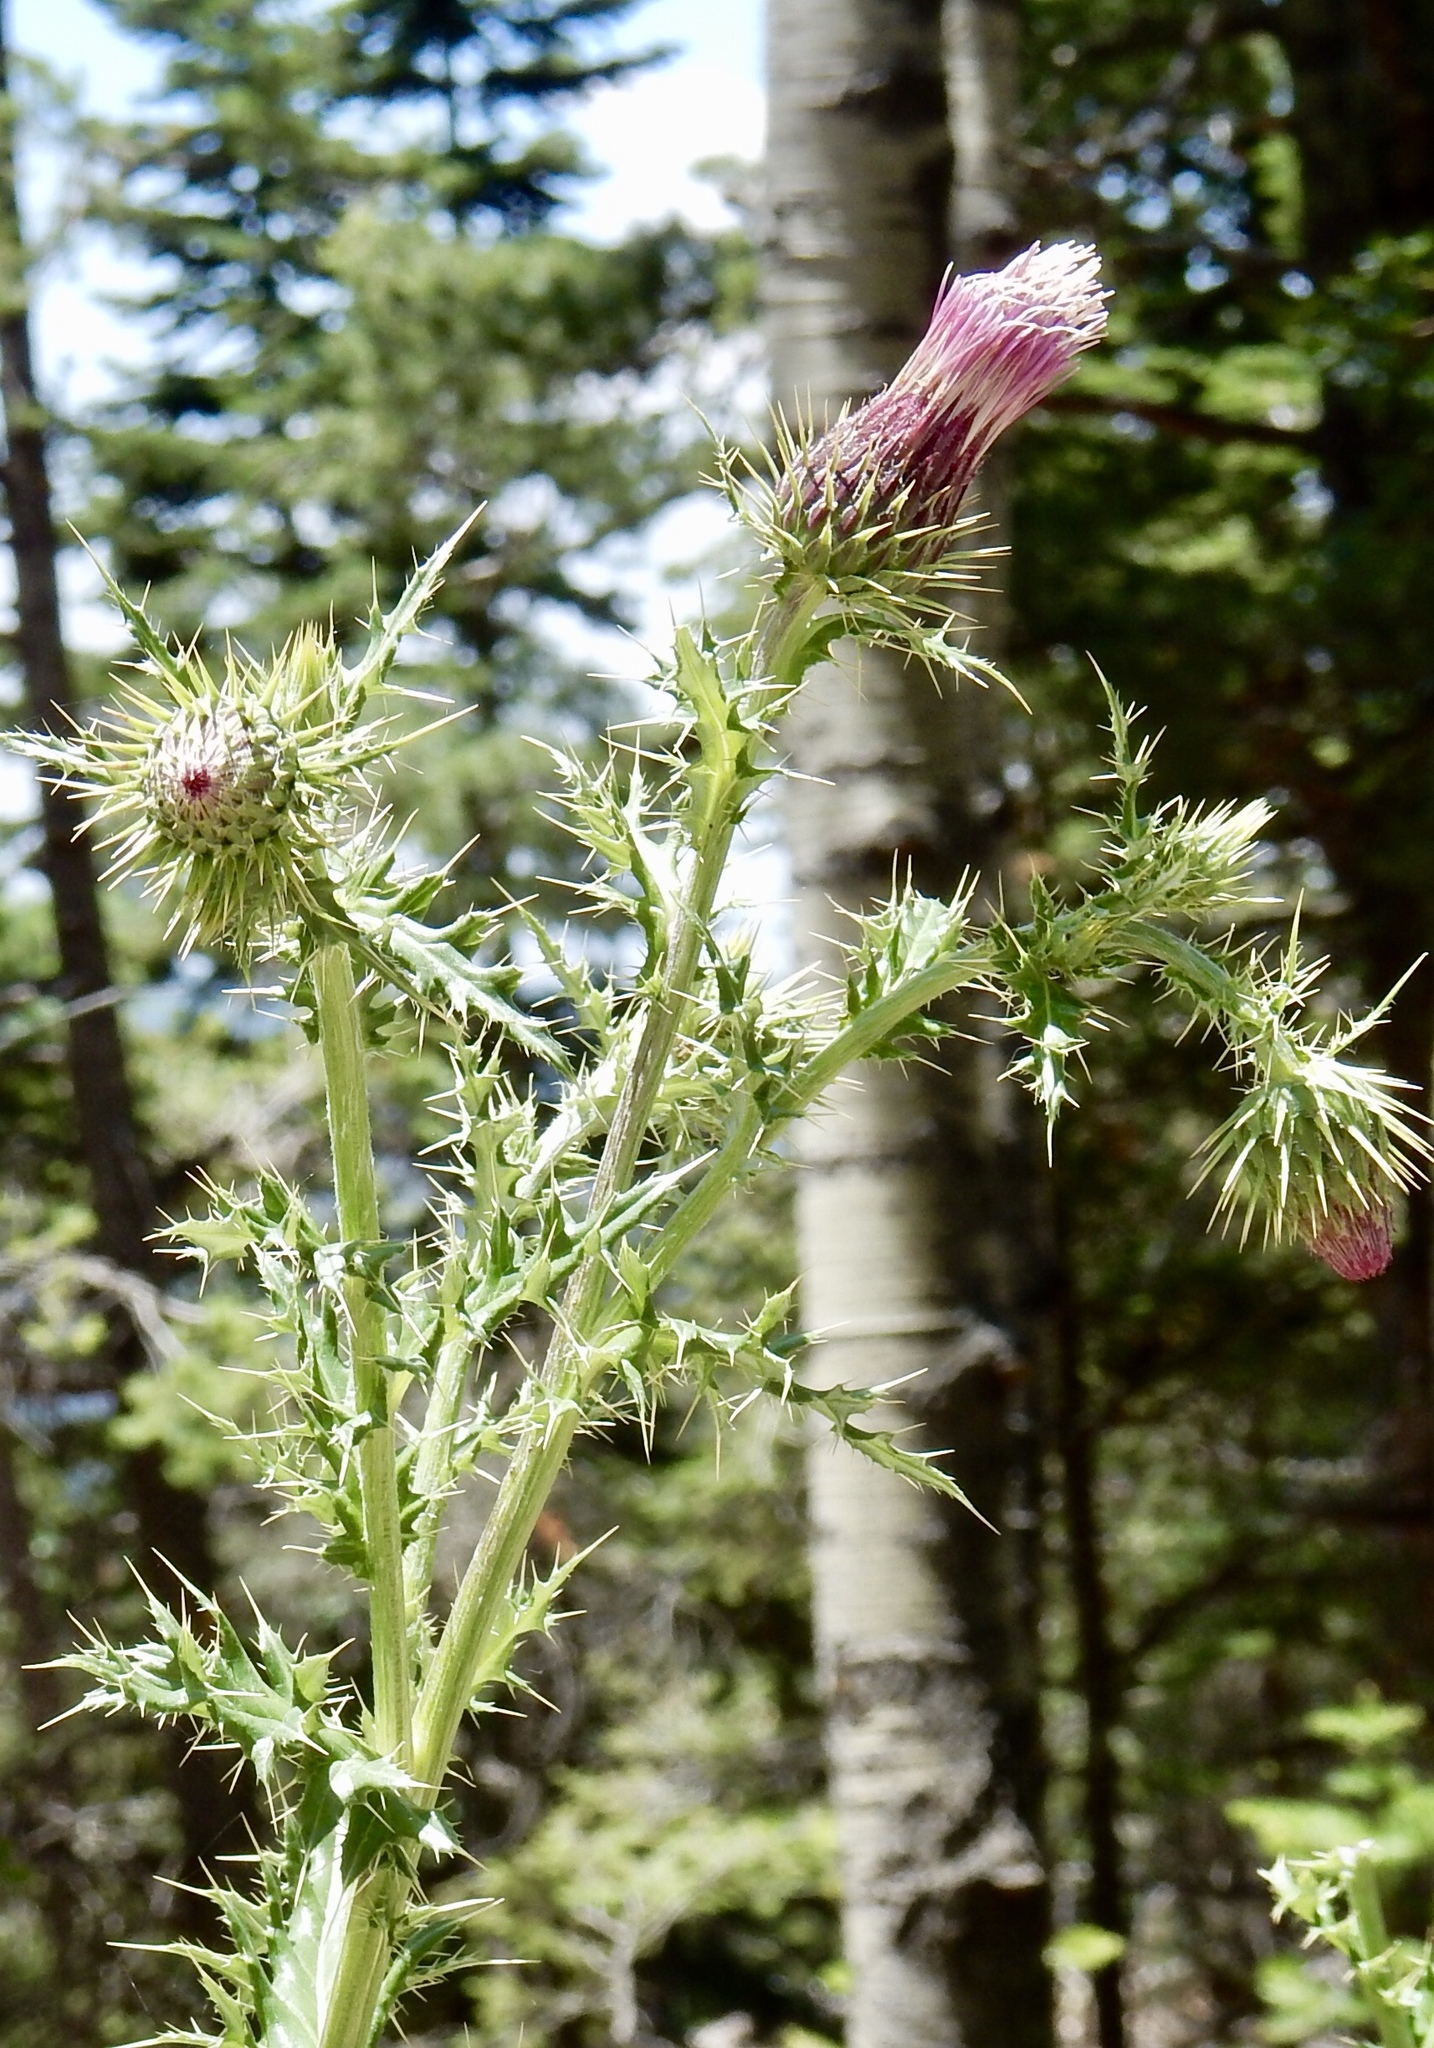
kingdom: Plantae
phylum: Tracheophyta
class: Magnoliopsida
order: Asterales
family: Asteraceae
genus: Cirsium
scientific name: Cirsium arizonicum
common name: Arizona thistle
